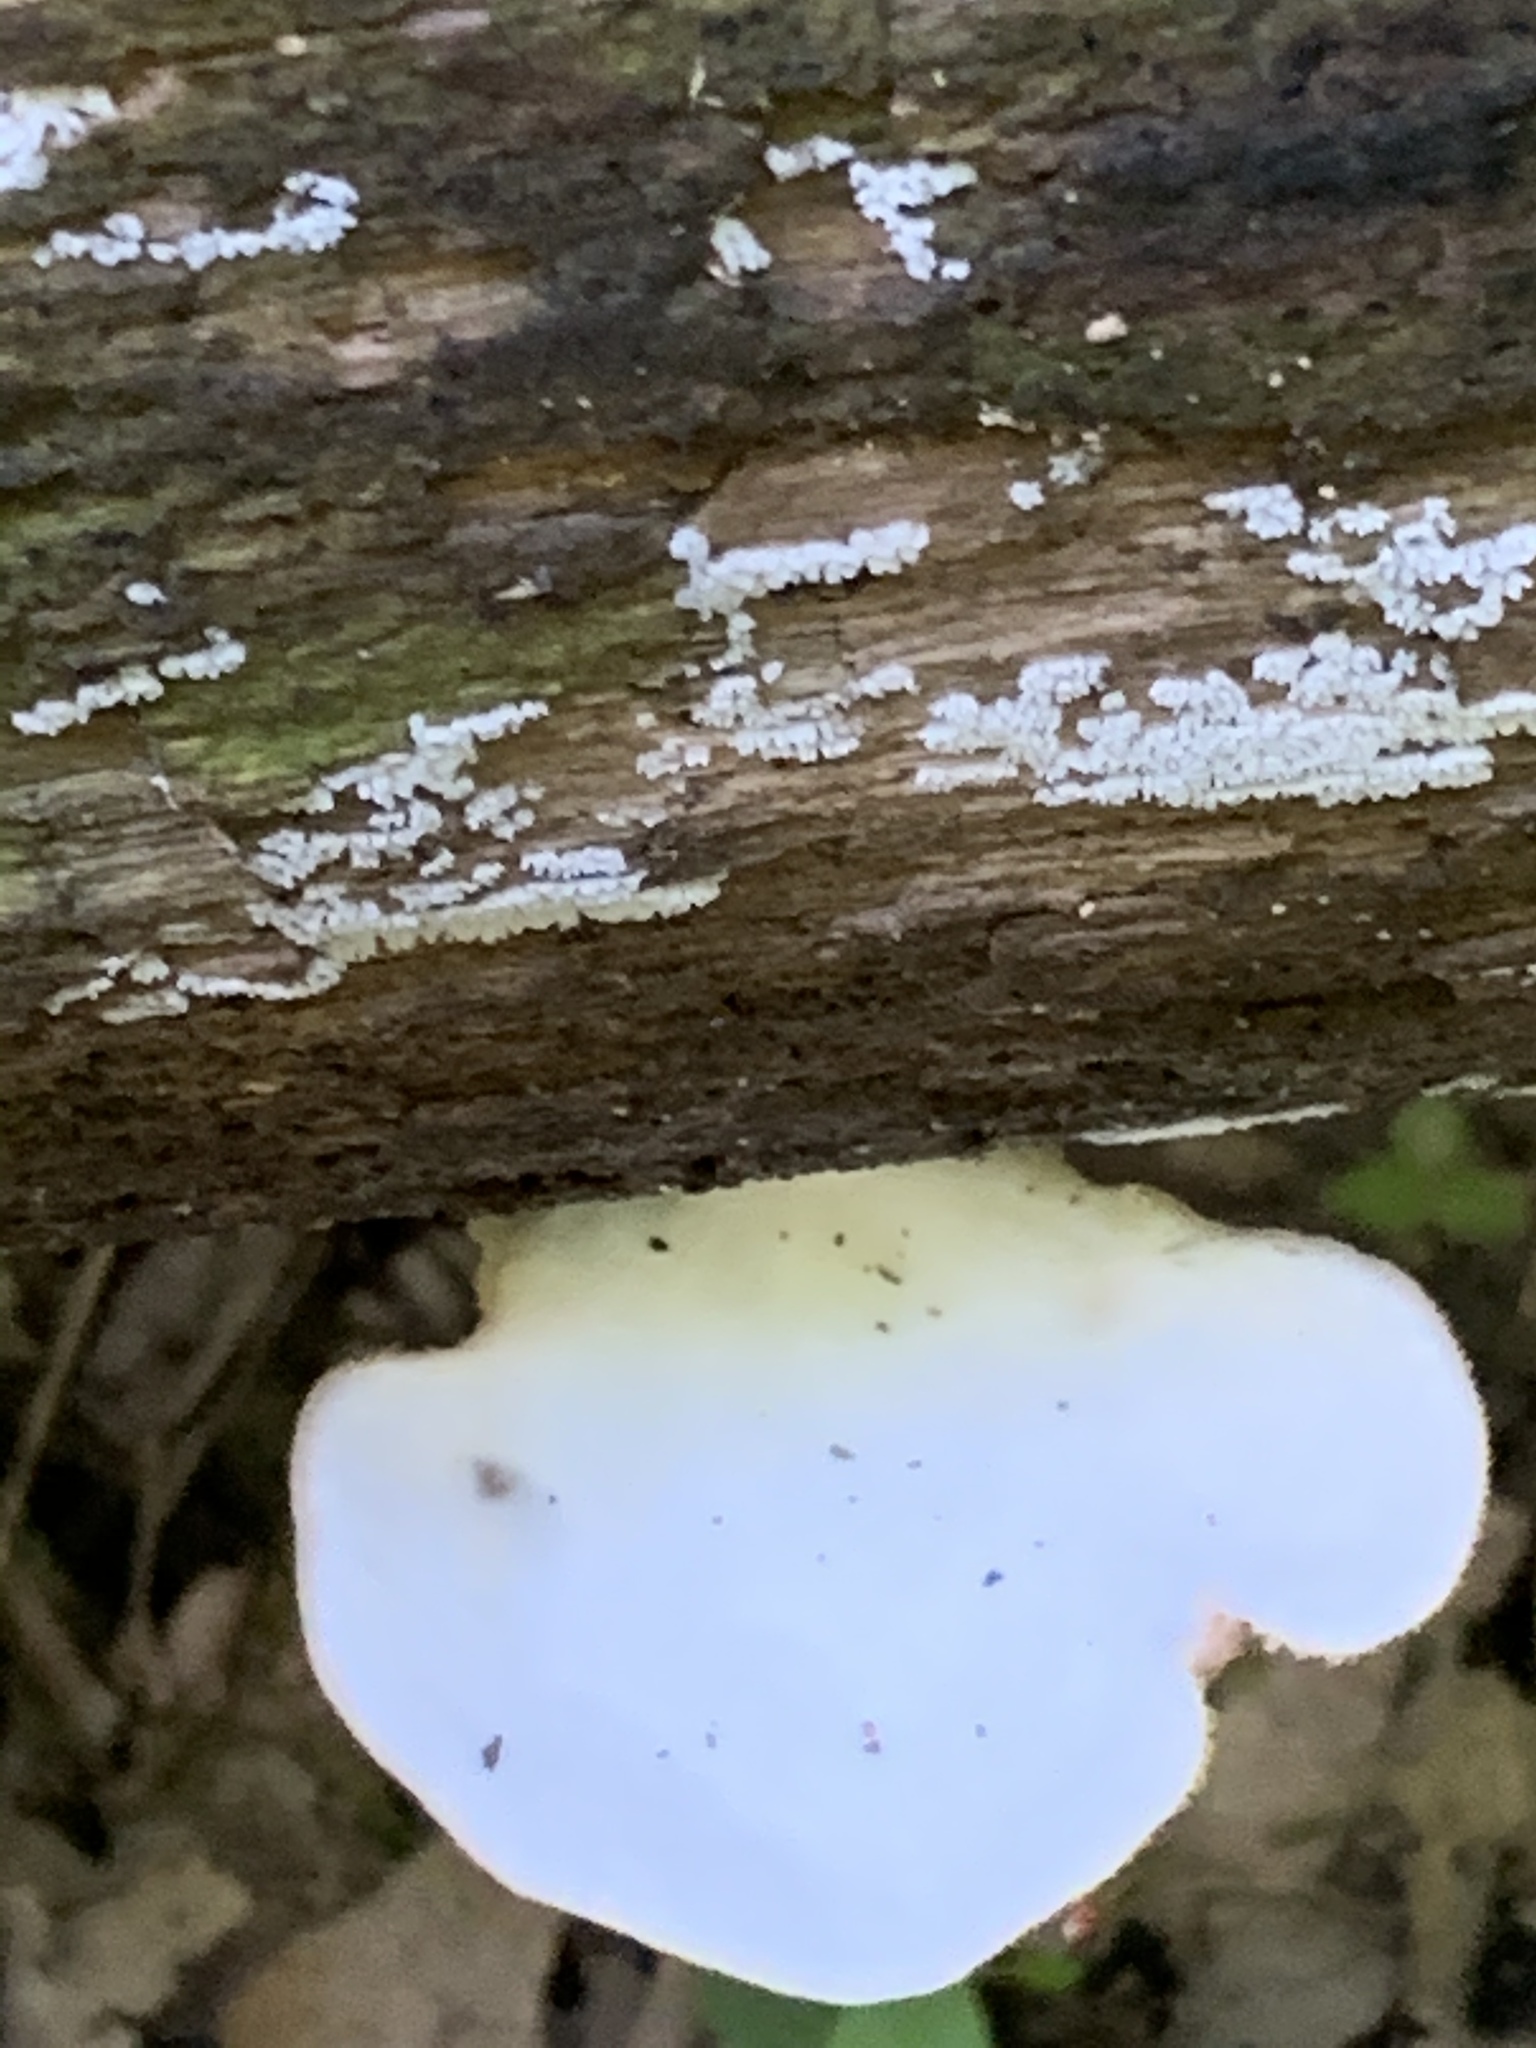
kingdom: Fungi
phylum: Basidiomycota
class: Agaricomycetes
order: Agaricales
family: Pleurotaceae
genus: Pleurotus
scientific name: Pleurotus pulmonarius
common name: Pale oyster
